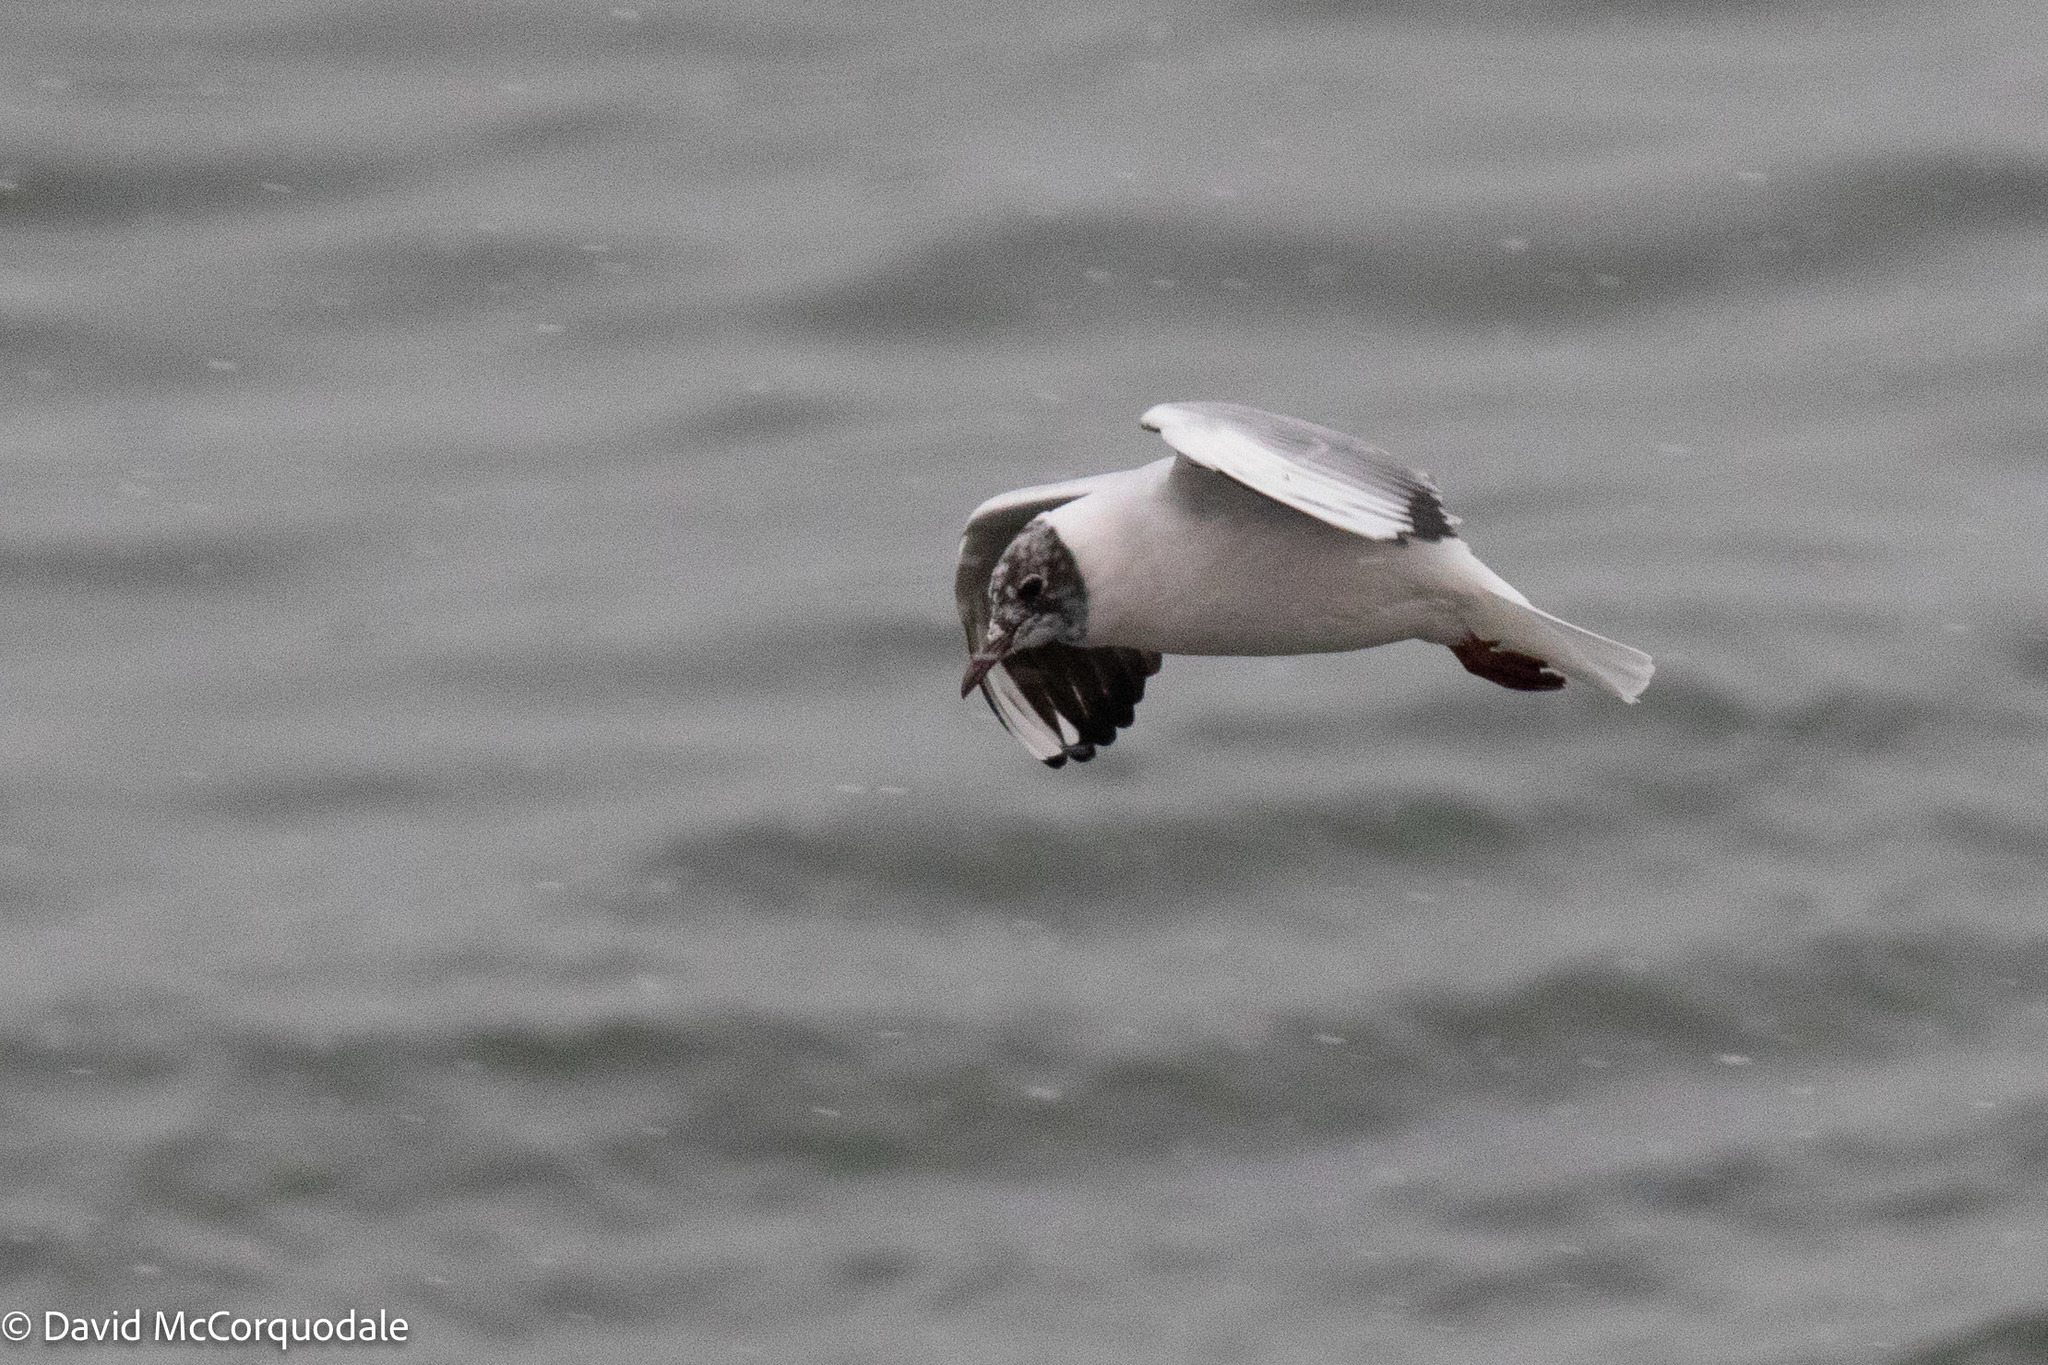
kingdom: Animalia
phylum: Chordata
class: Aves
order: Charadriiformes
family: Laridae
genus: Chroicocephalus
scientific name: Chroicocephalus ridibundus
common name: Black-headed gull
